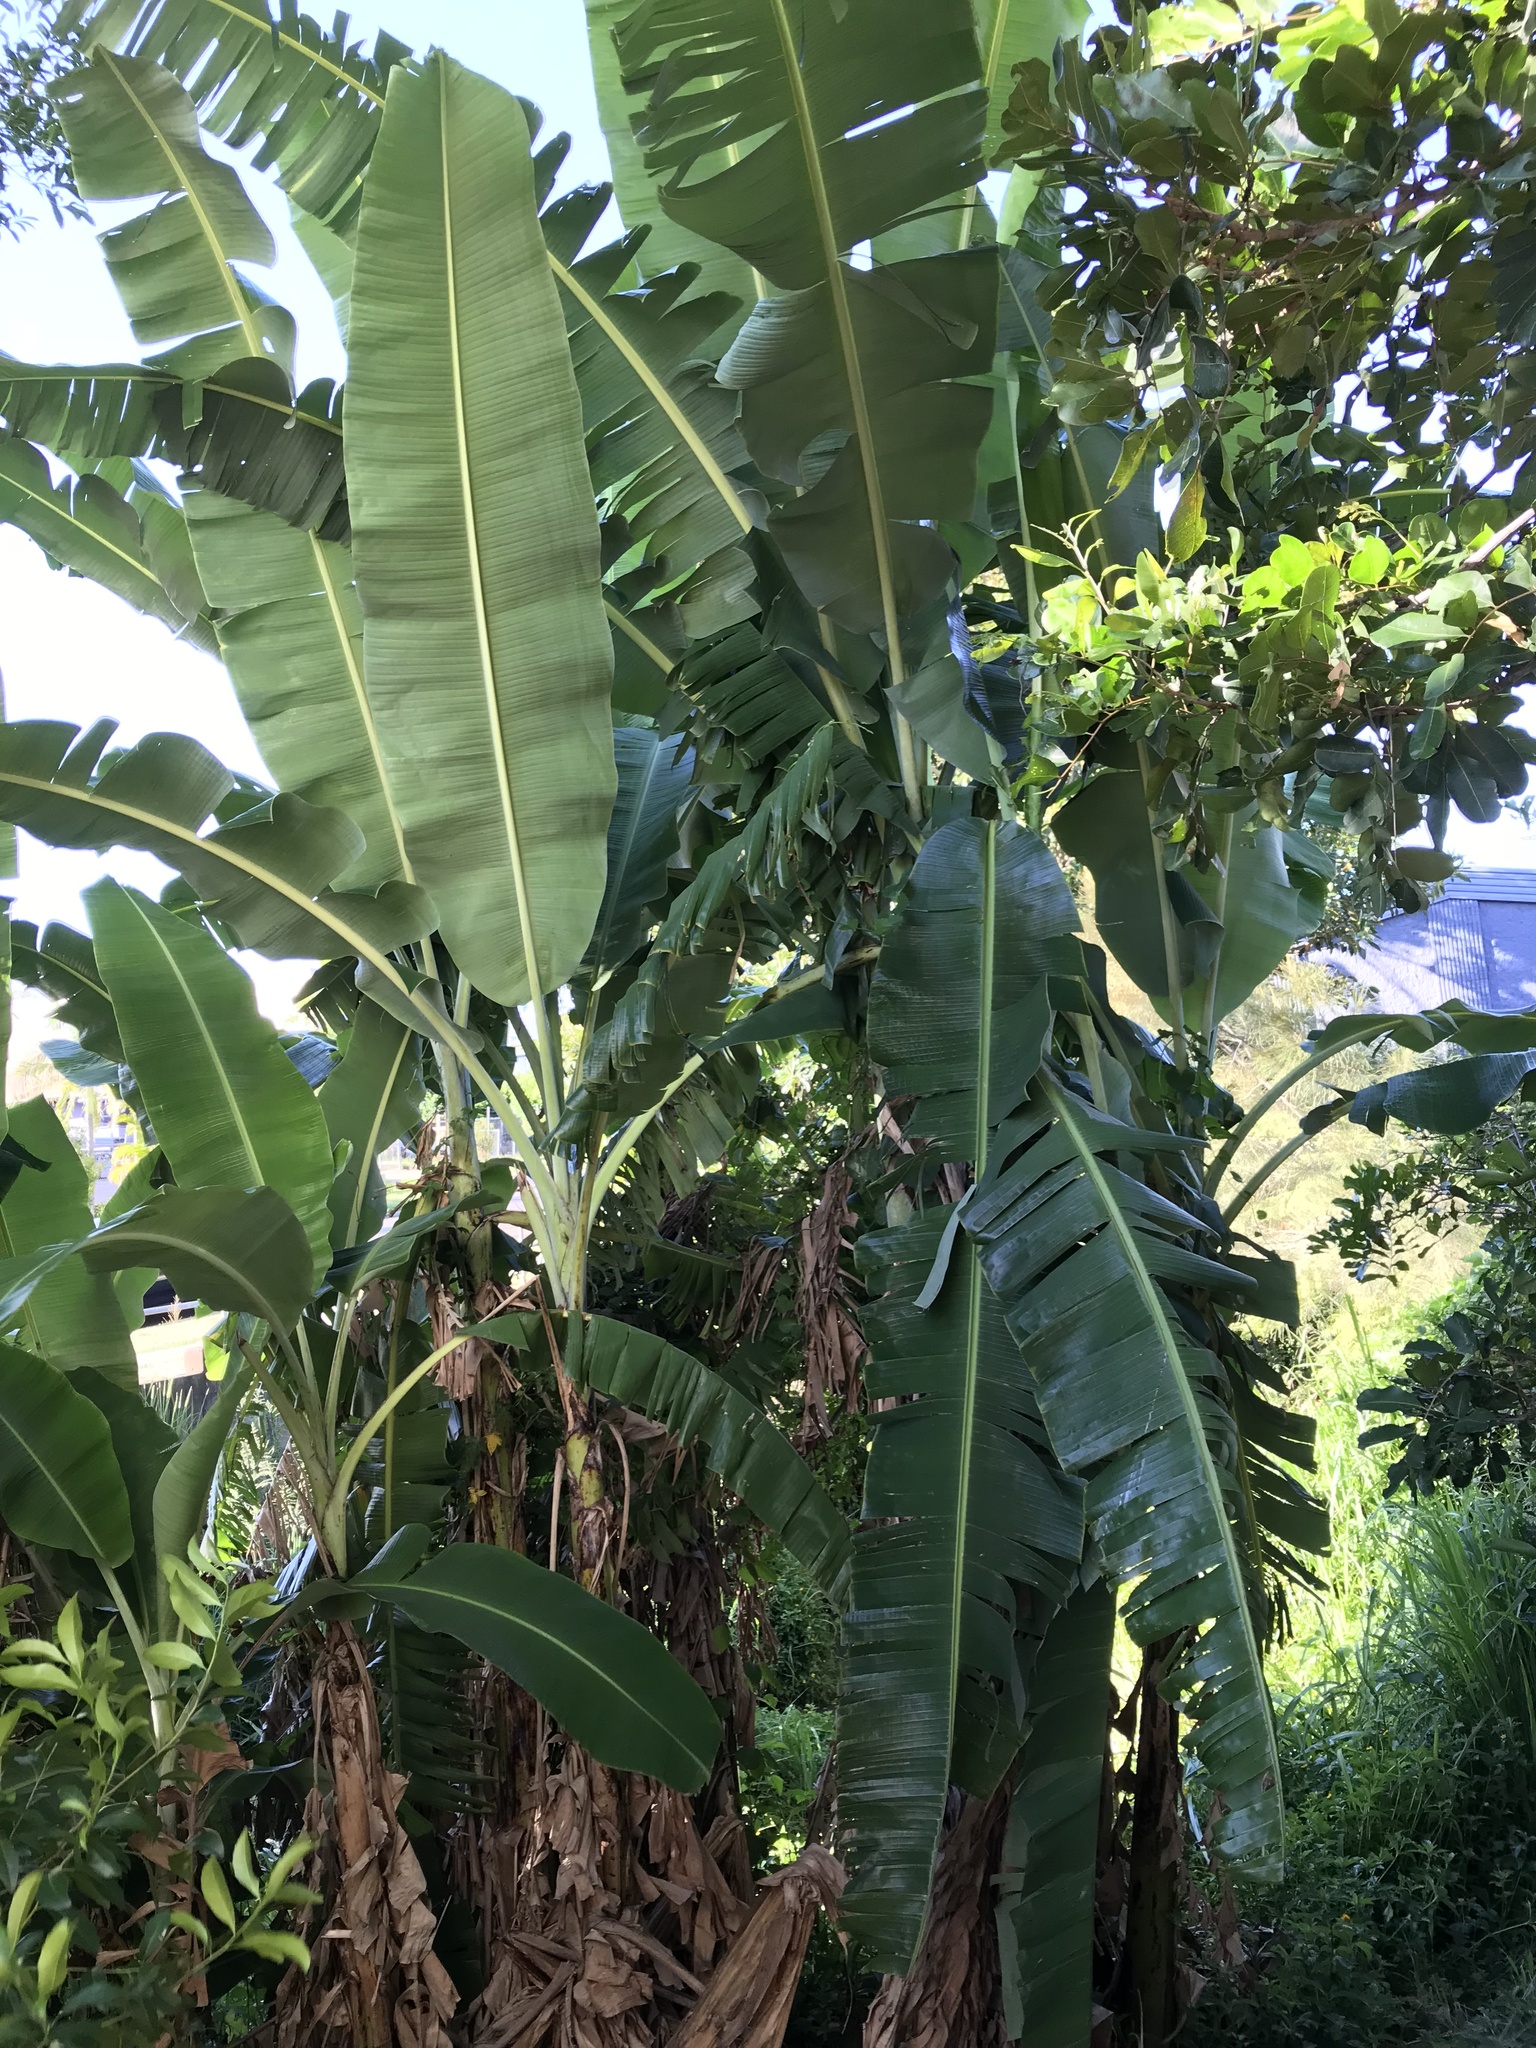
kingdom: Plantae
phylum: Tracheophyta
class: Liliopsida
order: Zingiberales
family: Musaceae
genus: Musa
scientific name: Musa acuminata
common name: Edible banana
